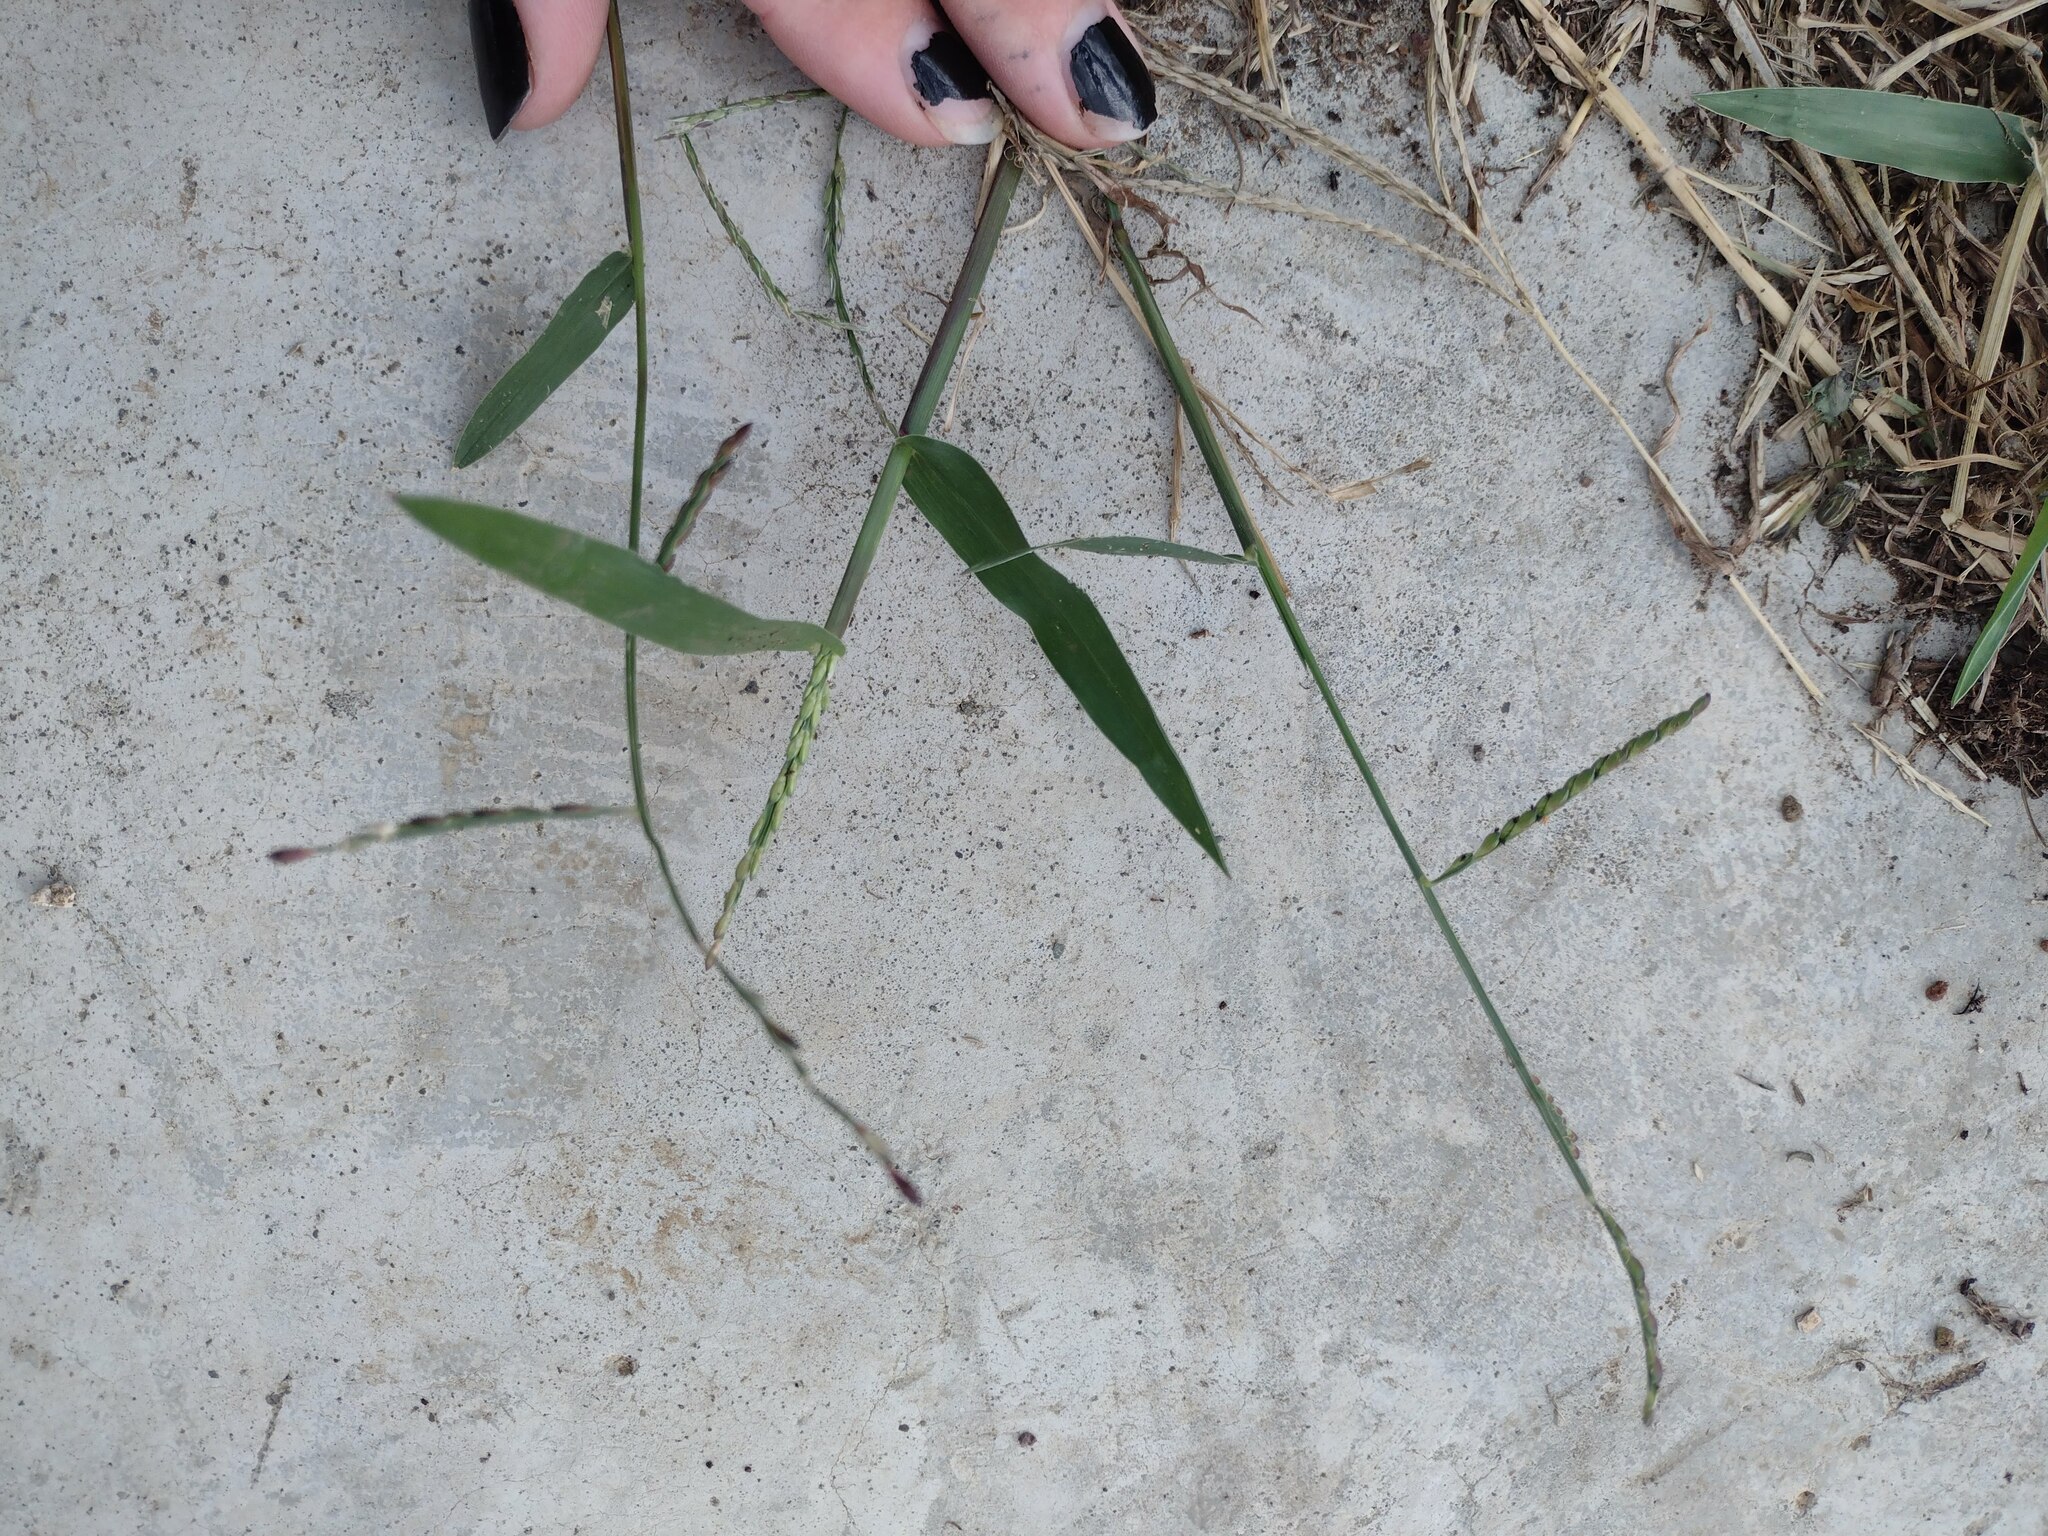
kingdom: Plantae
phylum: Tracheophyta
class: Liliopsida
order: Poales
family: Poaceae
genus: Urochloa
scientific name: Urochloa distachyos
